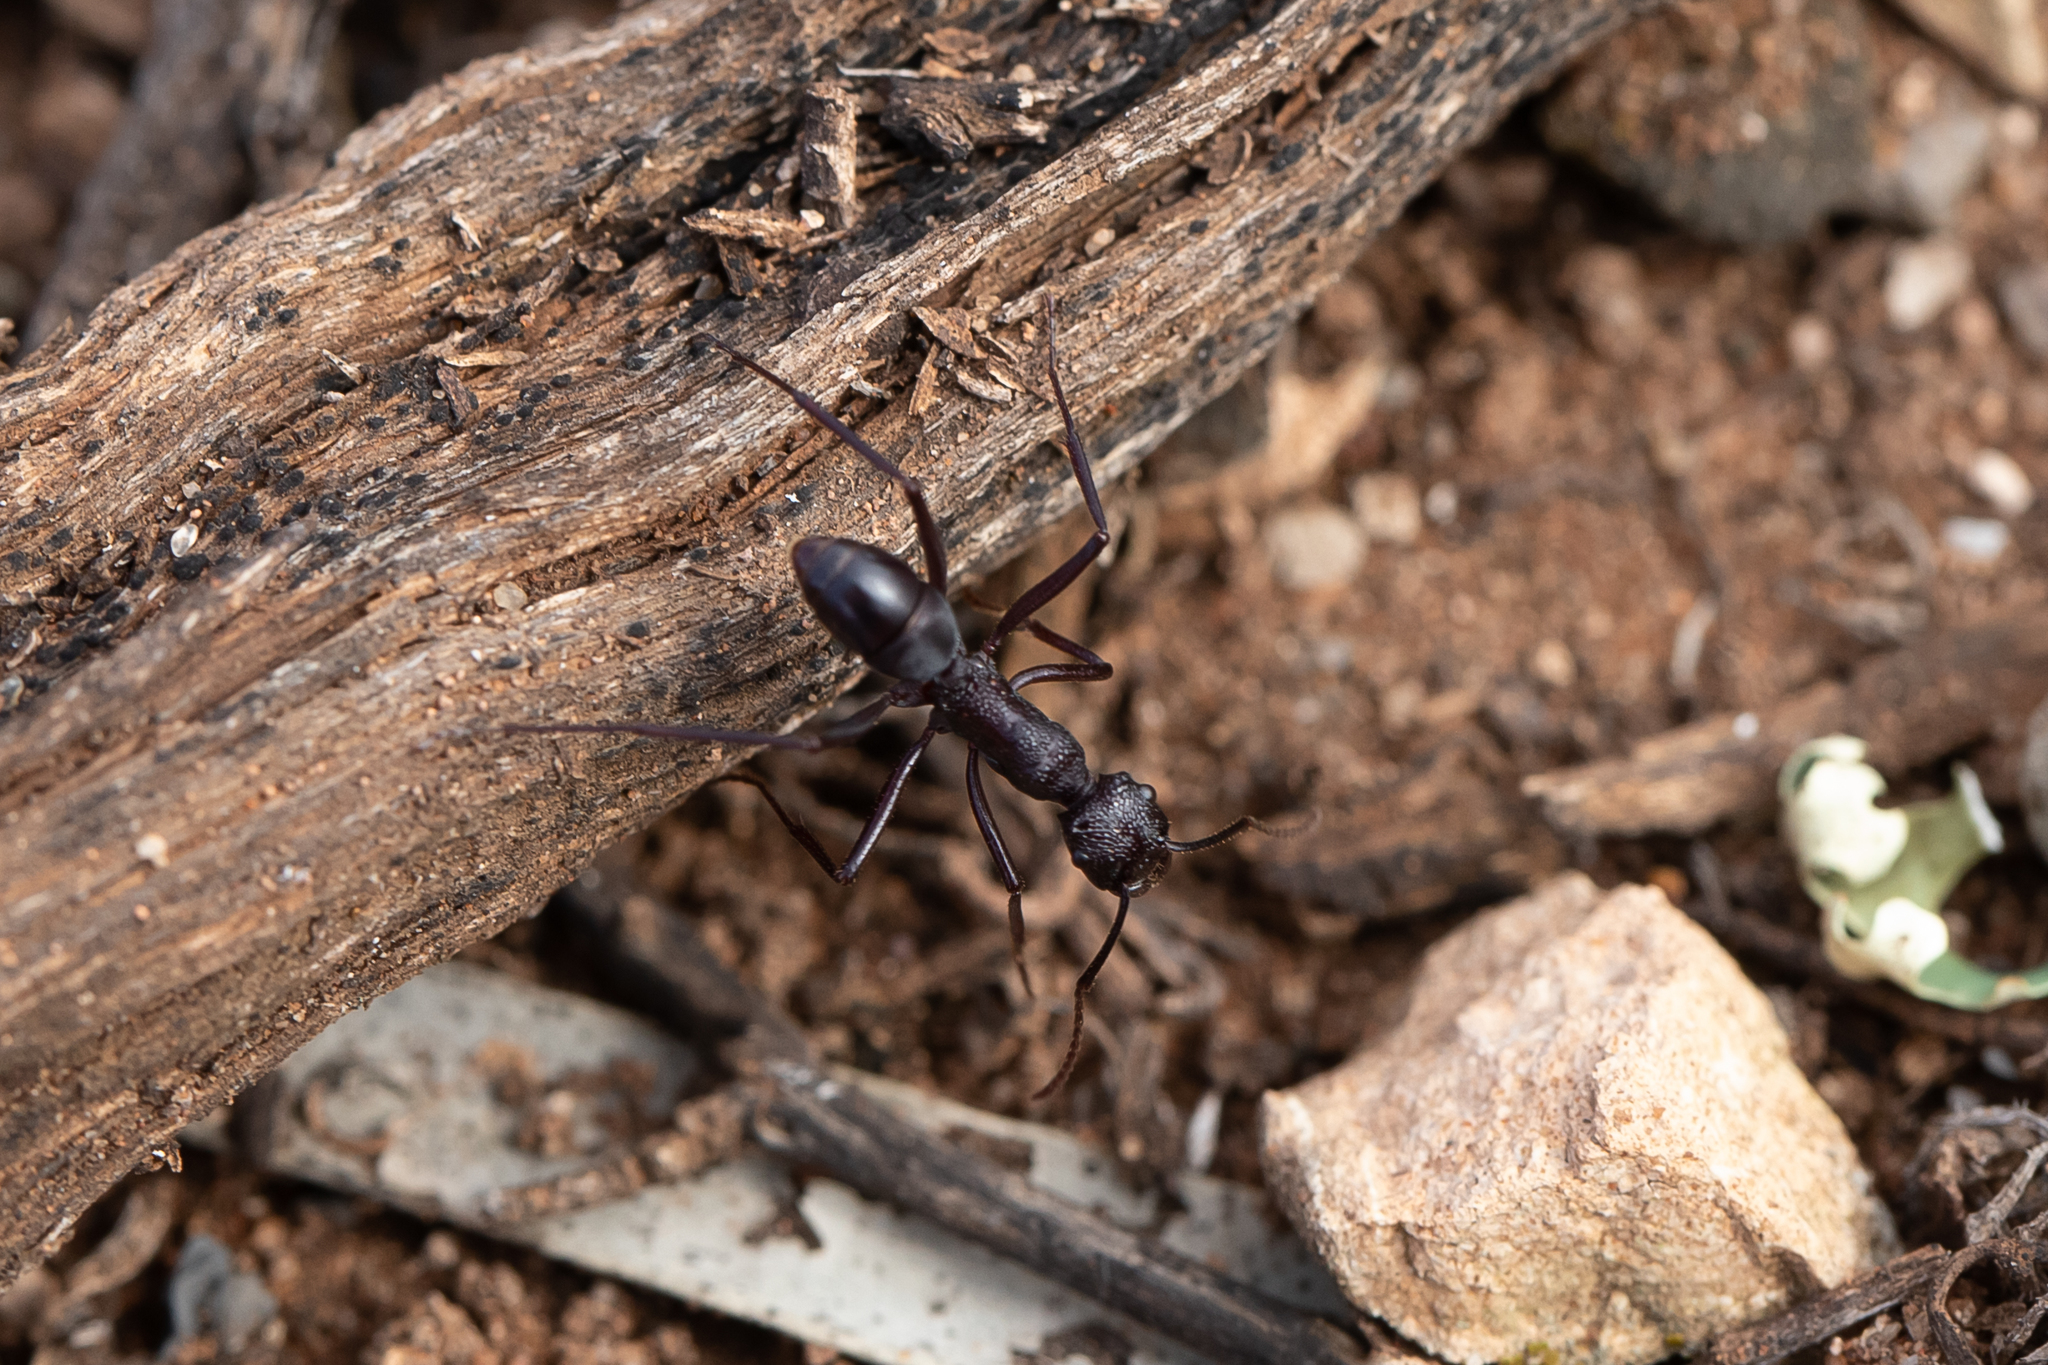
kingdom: Animalia
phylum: Arthropoda
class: Insecta
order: Hymenoptera
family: Formicidae
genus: Rhytidoponera
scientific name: Rhytidoponera mayri
